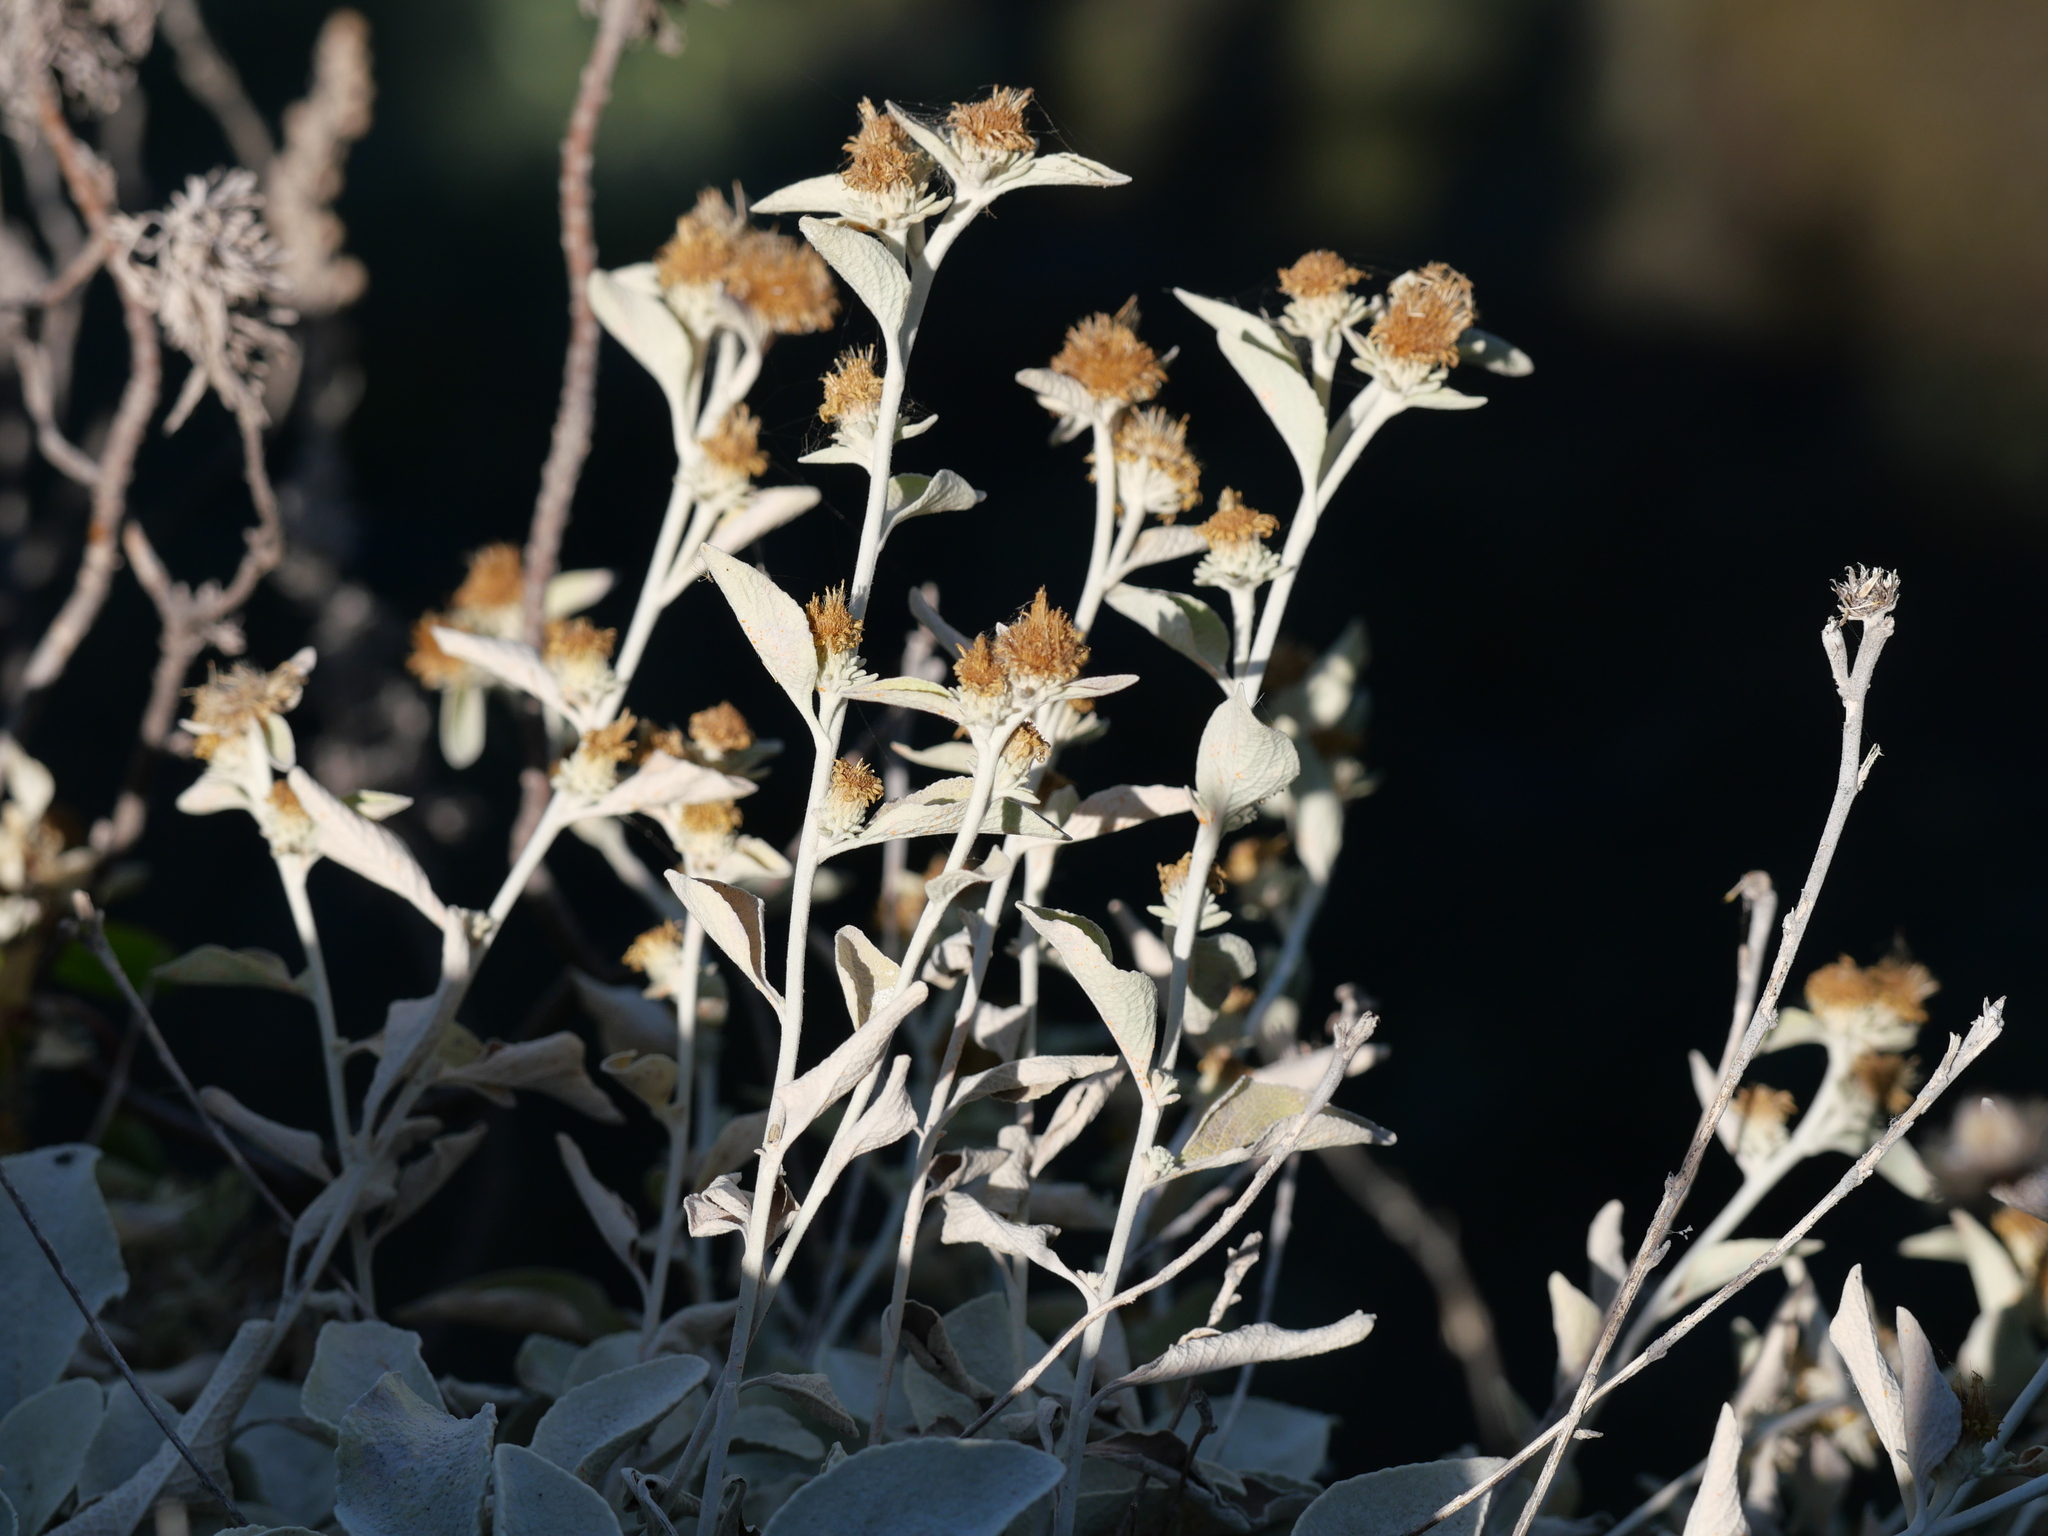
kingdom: Plantae
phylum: Tracheophyta
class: Magnoliopsida
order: Asterales
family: Asteraceae
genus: Pentanema
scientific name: Pentanema verbascifolium
